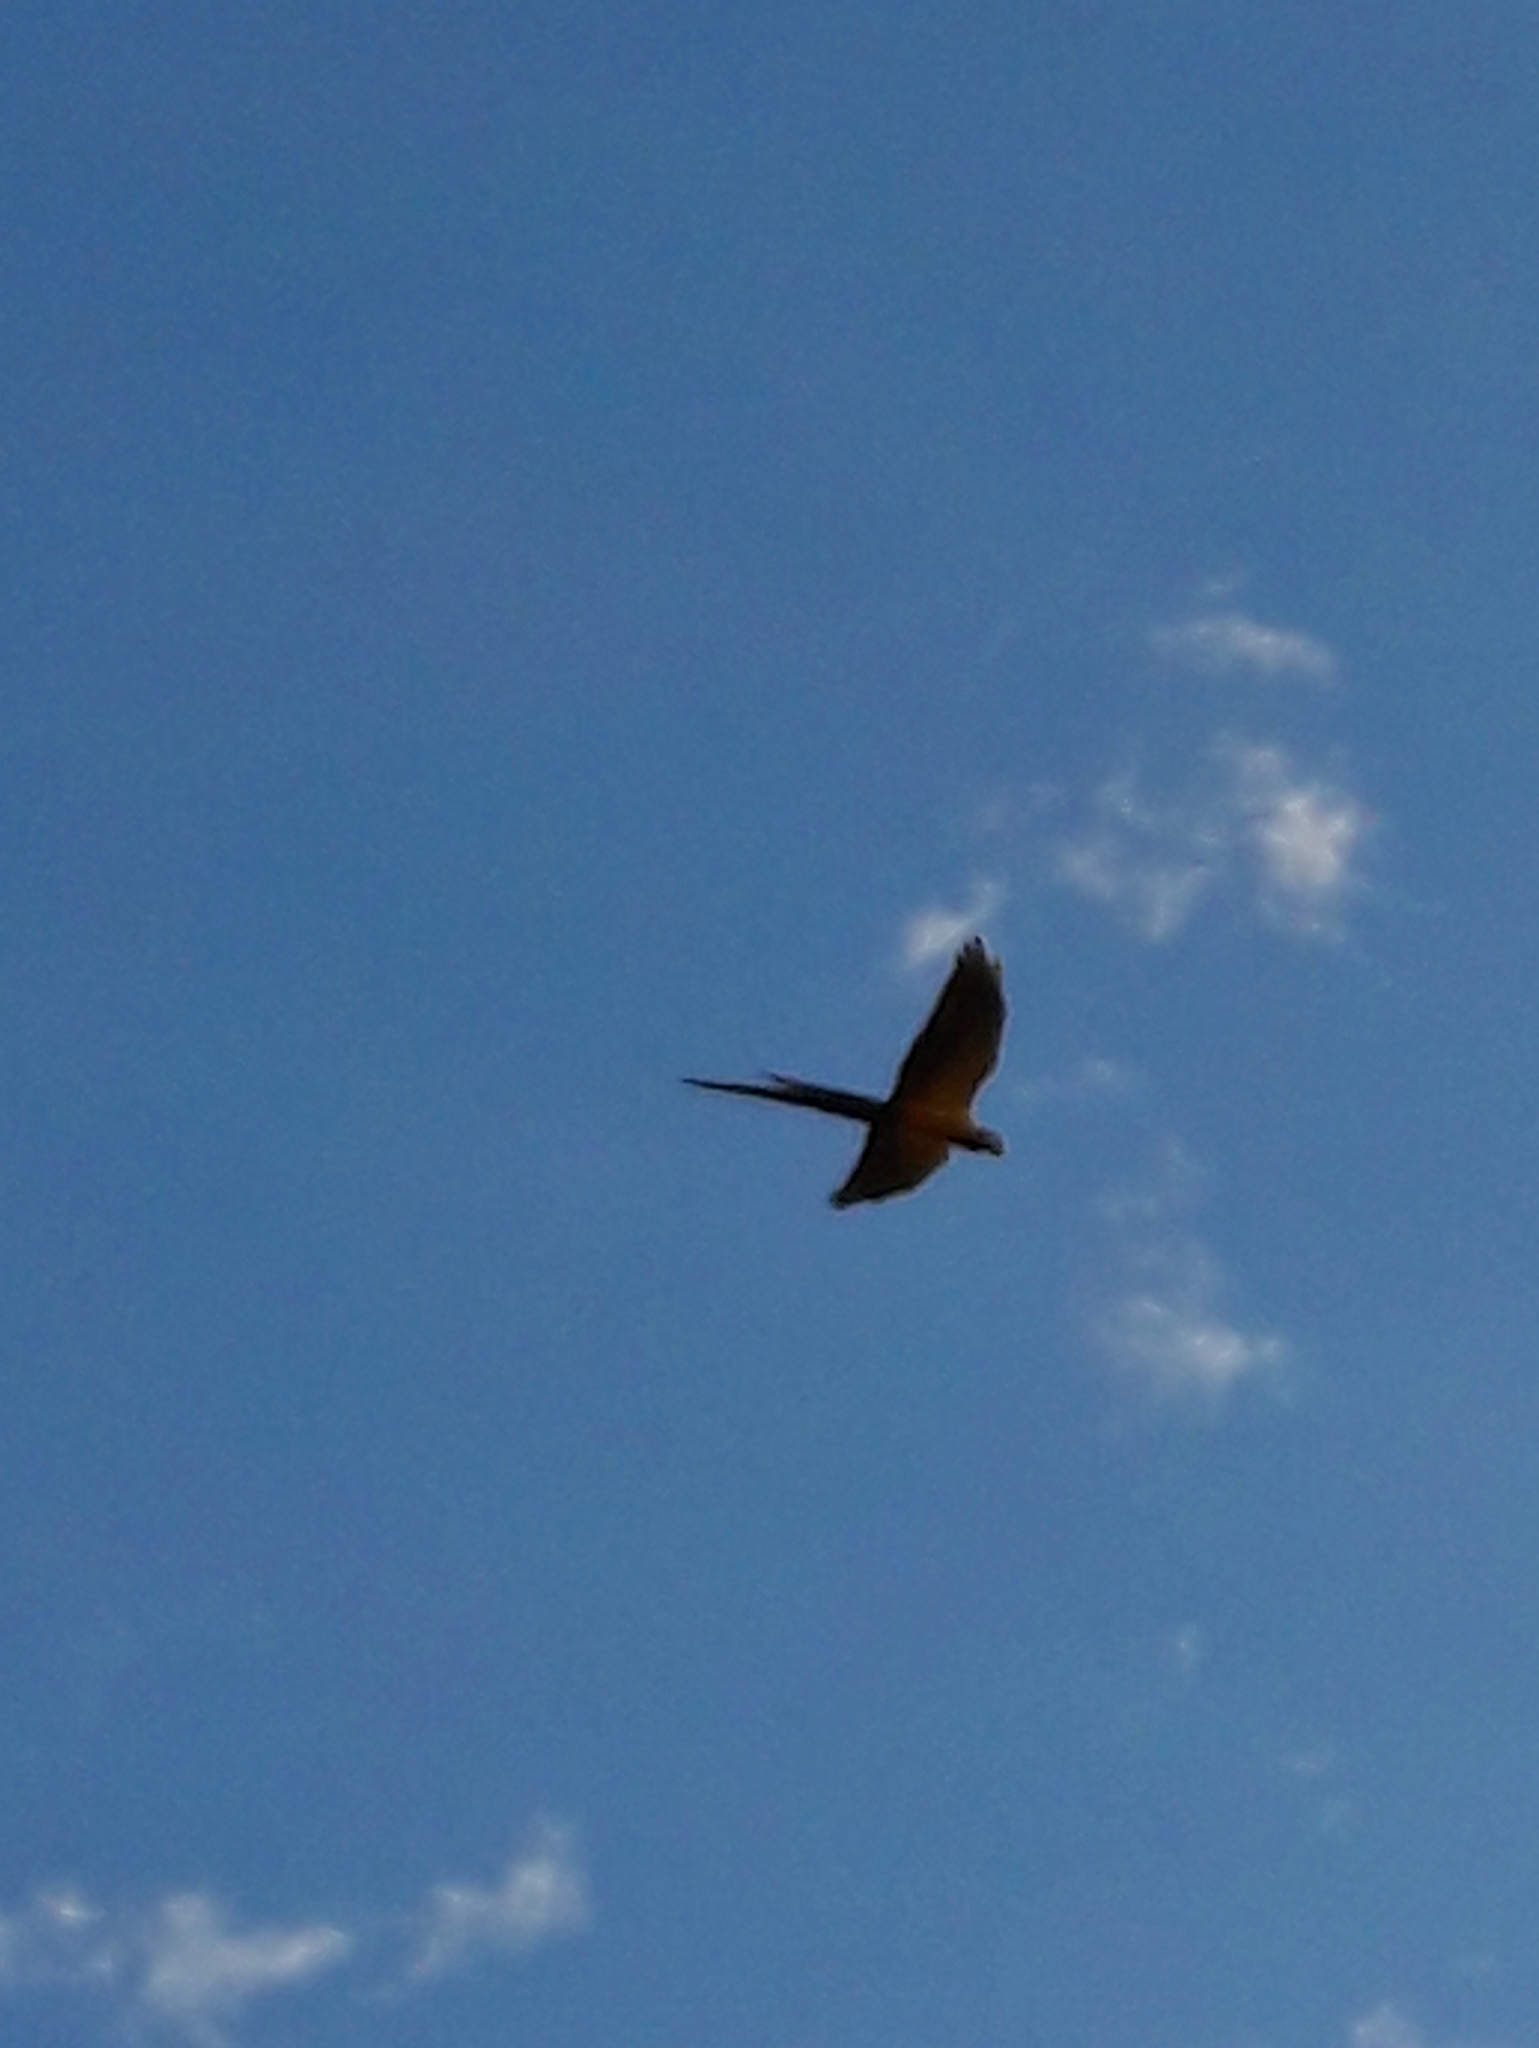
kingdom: Animalia
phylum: Chordata
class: Aves
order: Psittaciformes
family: Psittacidae
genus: Ara
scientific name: Ara ararauna
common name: Blue-and-yellow macaw
